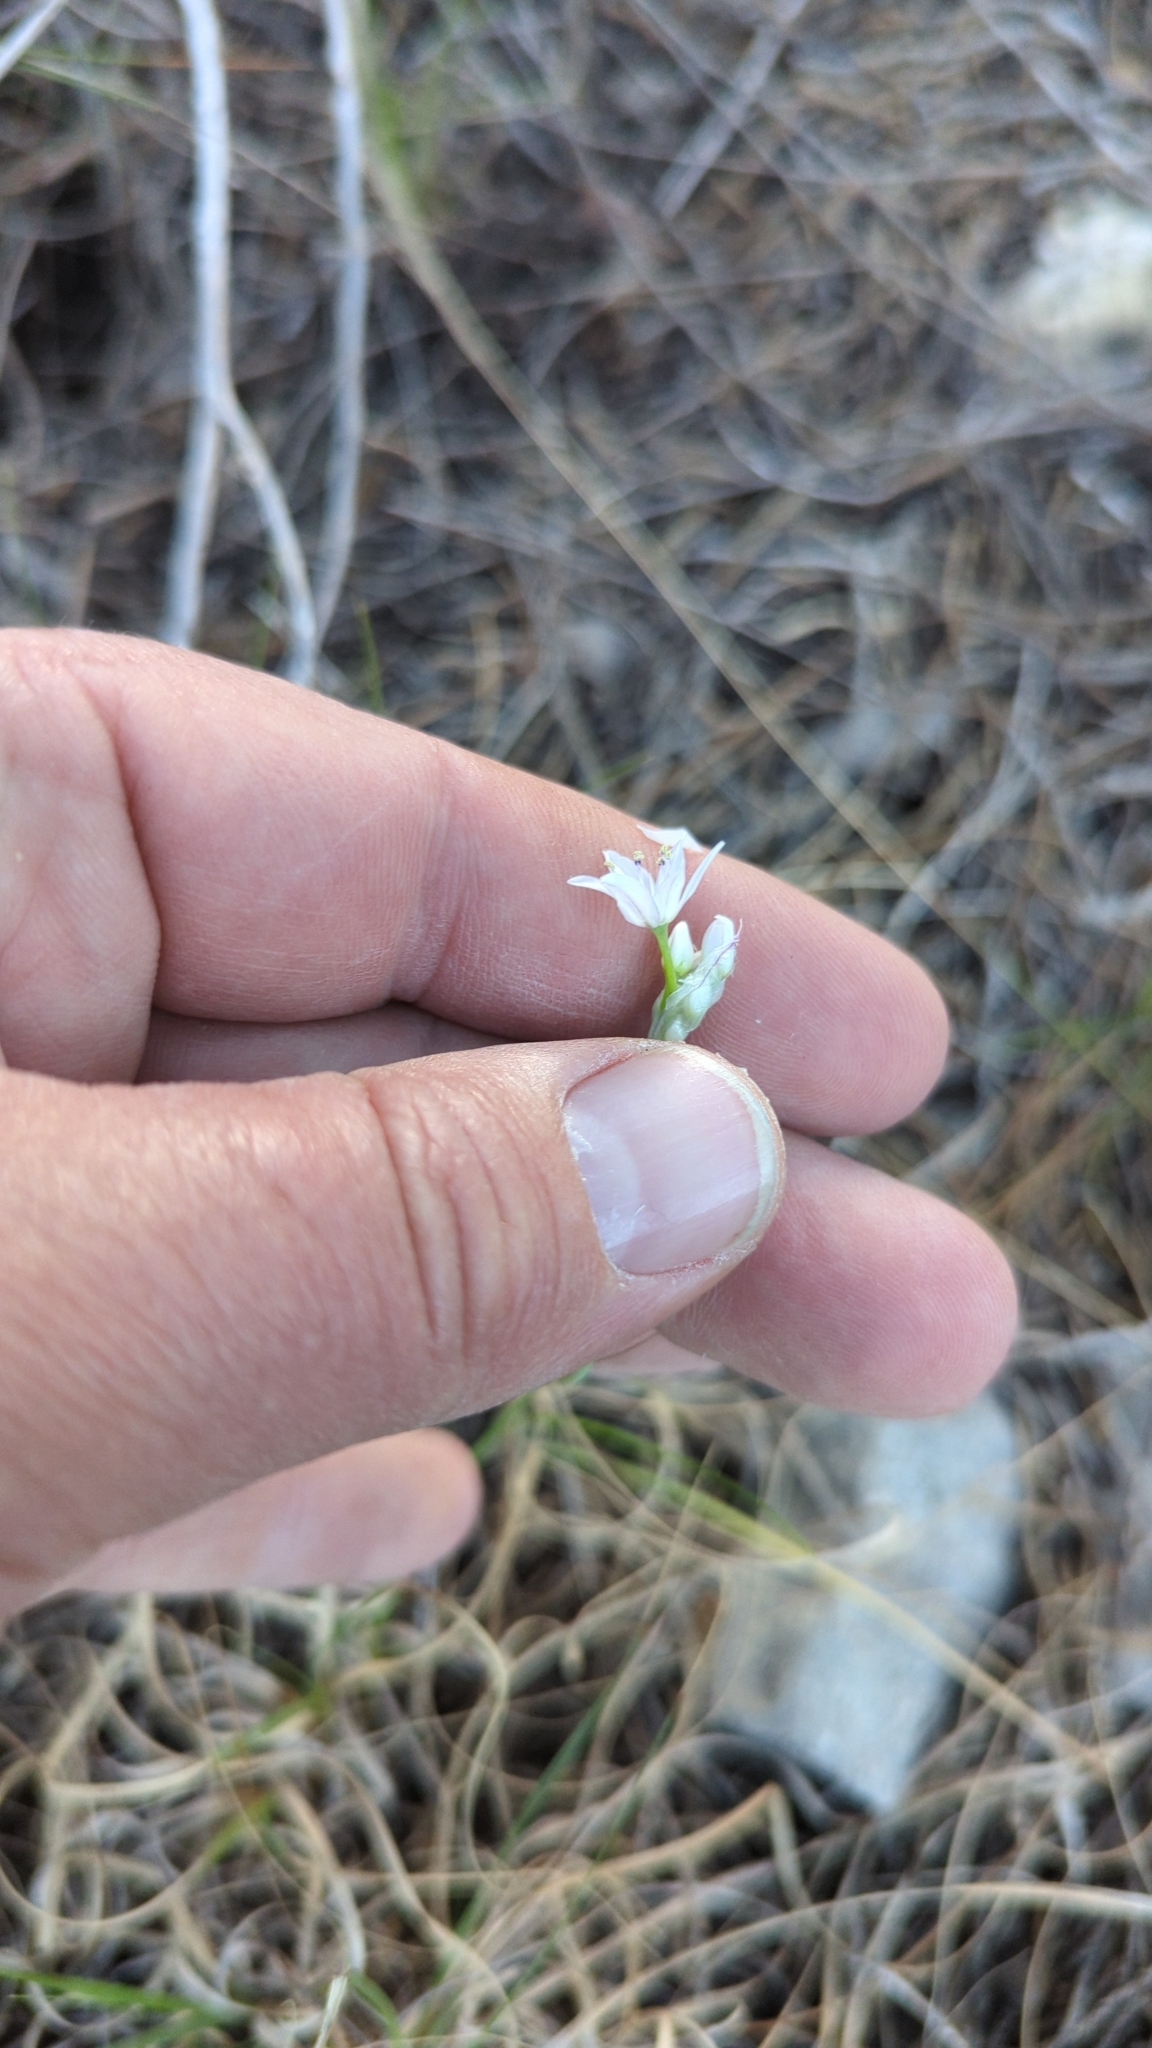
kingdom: Plantae
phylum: Tracheophyta
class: Liliopsida
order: Asparagales
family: Amaryllidaceae
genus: Allium
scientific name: Allium drummondii
